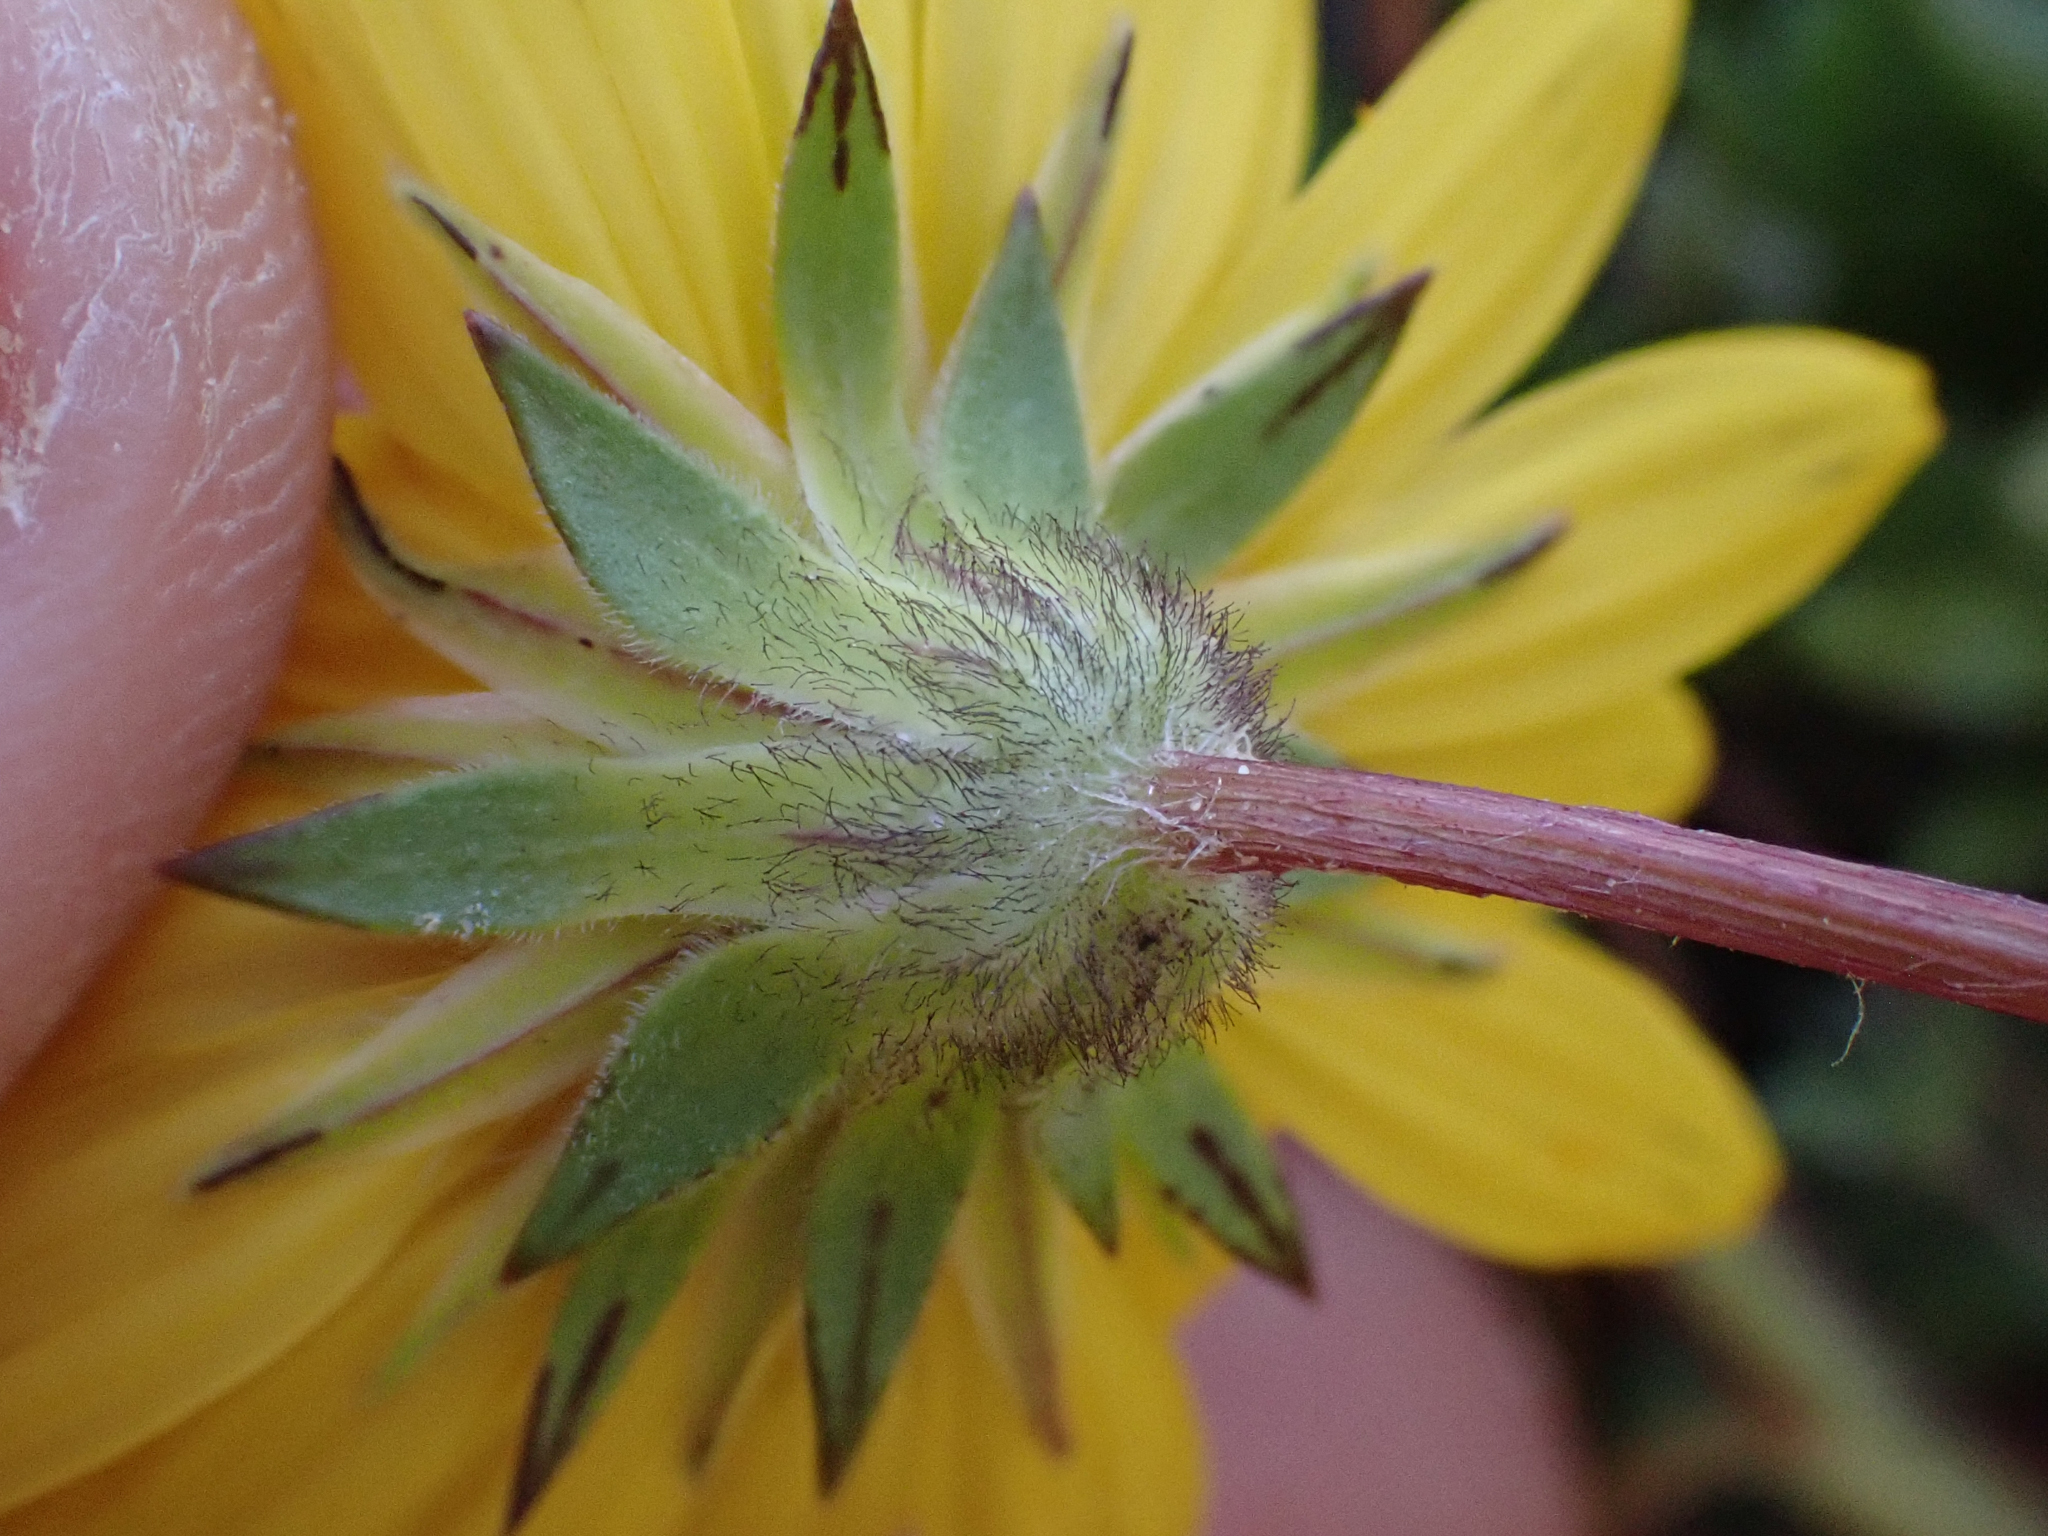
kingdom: Plantae
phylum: Tracheophyta
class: Magnoliopsida
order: Asterales
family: Asteraceae
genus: Agoseris
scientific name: Agoseris heterophylla
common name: Annual agoseris
